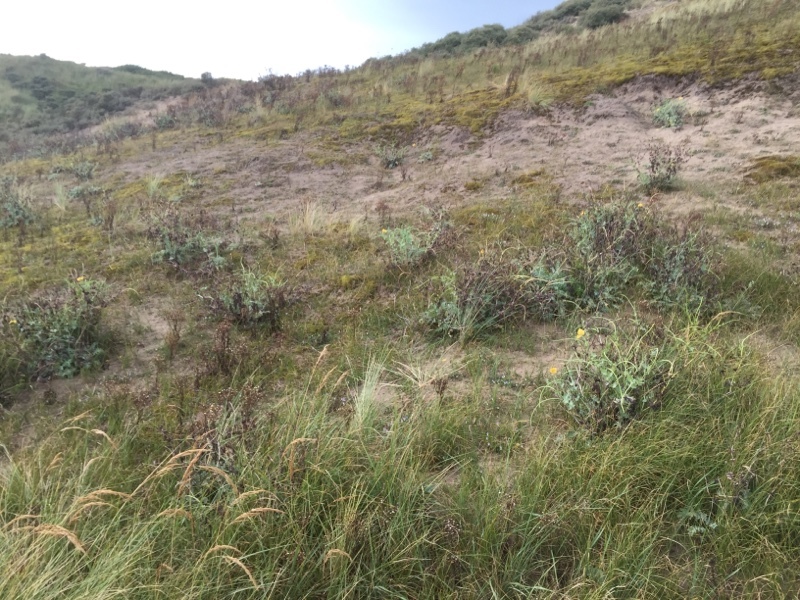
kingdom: Plantae
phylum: Tracheophyta
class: Magnoliopsida
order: Ranunculales
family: Papaveraceae
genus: Glaucium
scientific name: Glaucium flavum
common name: Yellow horned-poppy
